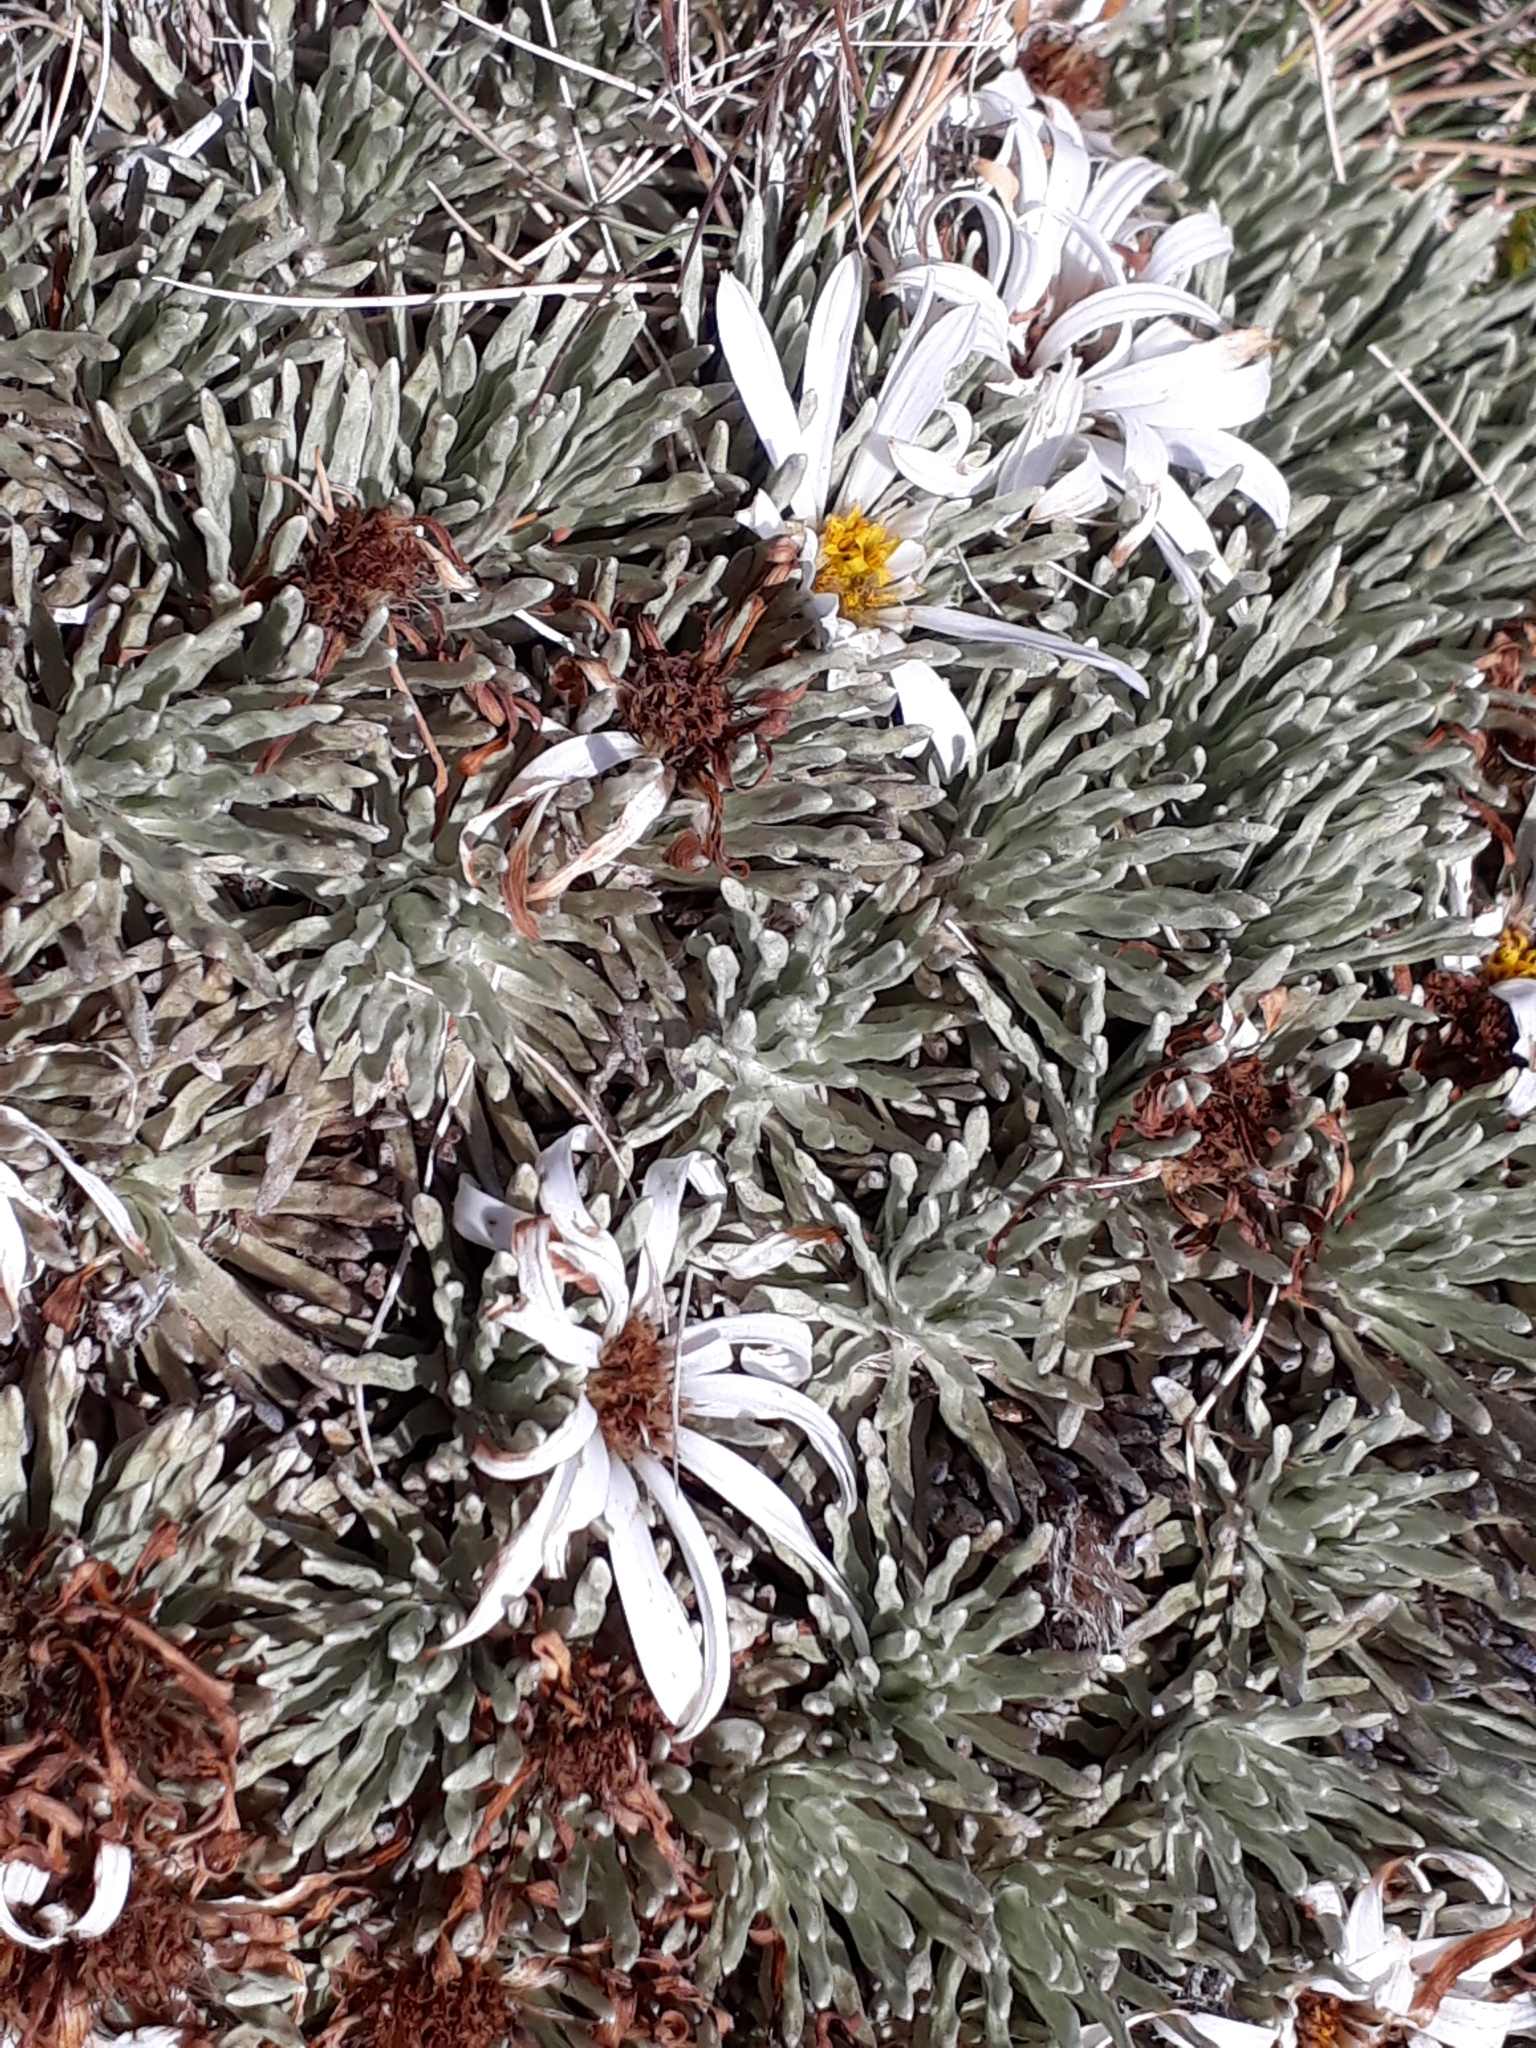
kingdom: Plantae
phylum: Tracheophyta
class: Magnoliopsida
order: Asterales
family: Asteraceae
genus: Celmisia
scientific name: Celmisia sessiliflora
